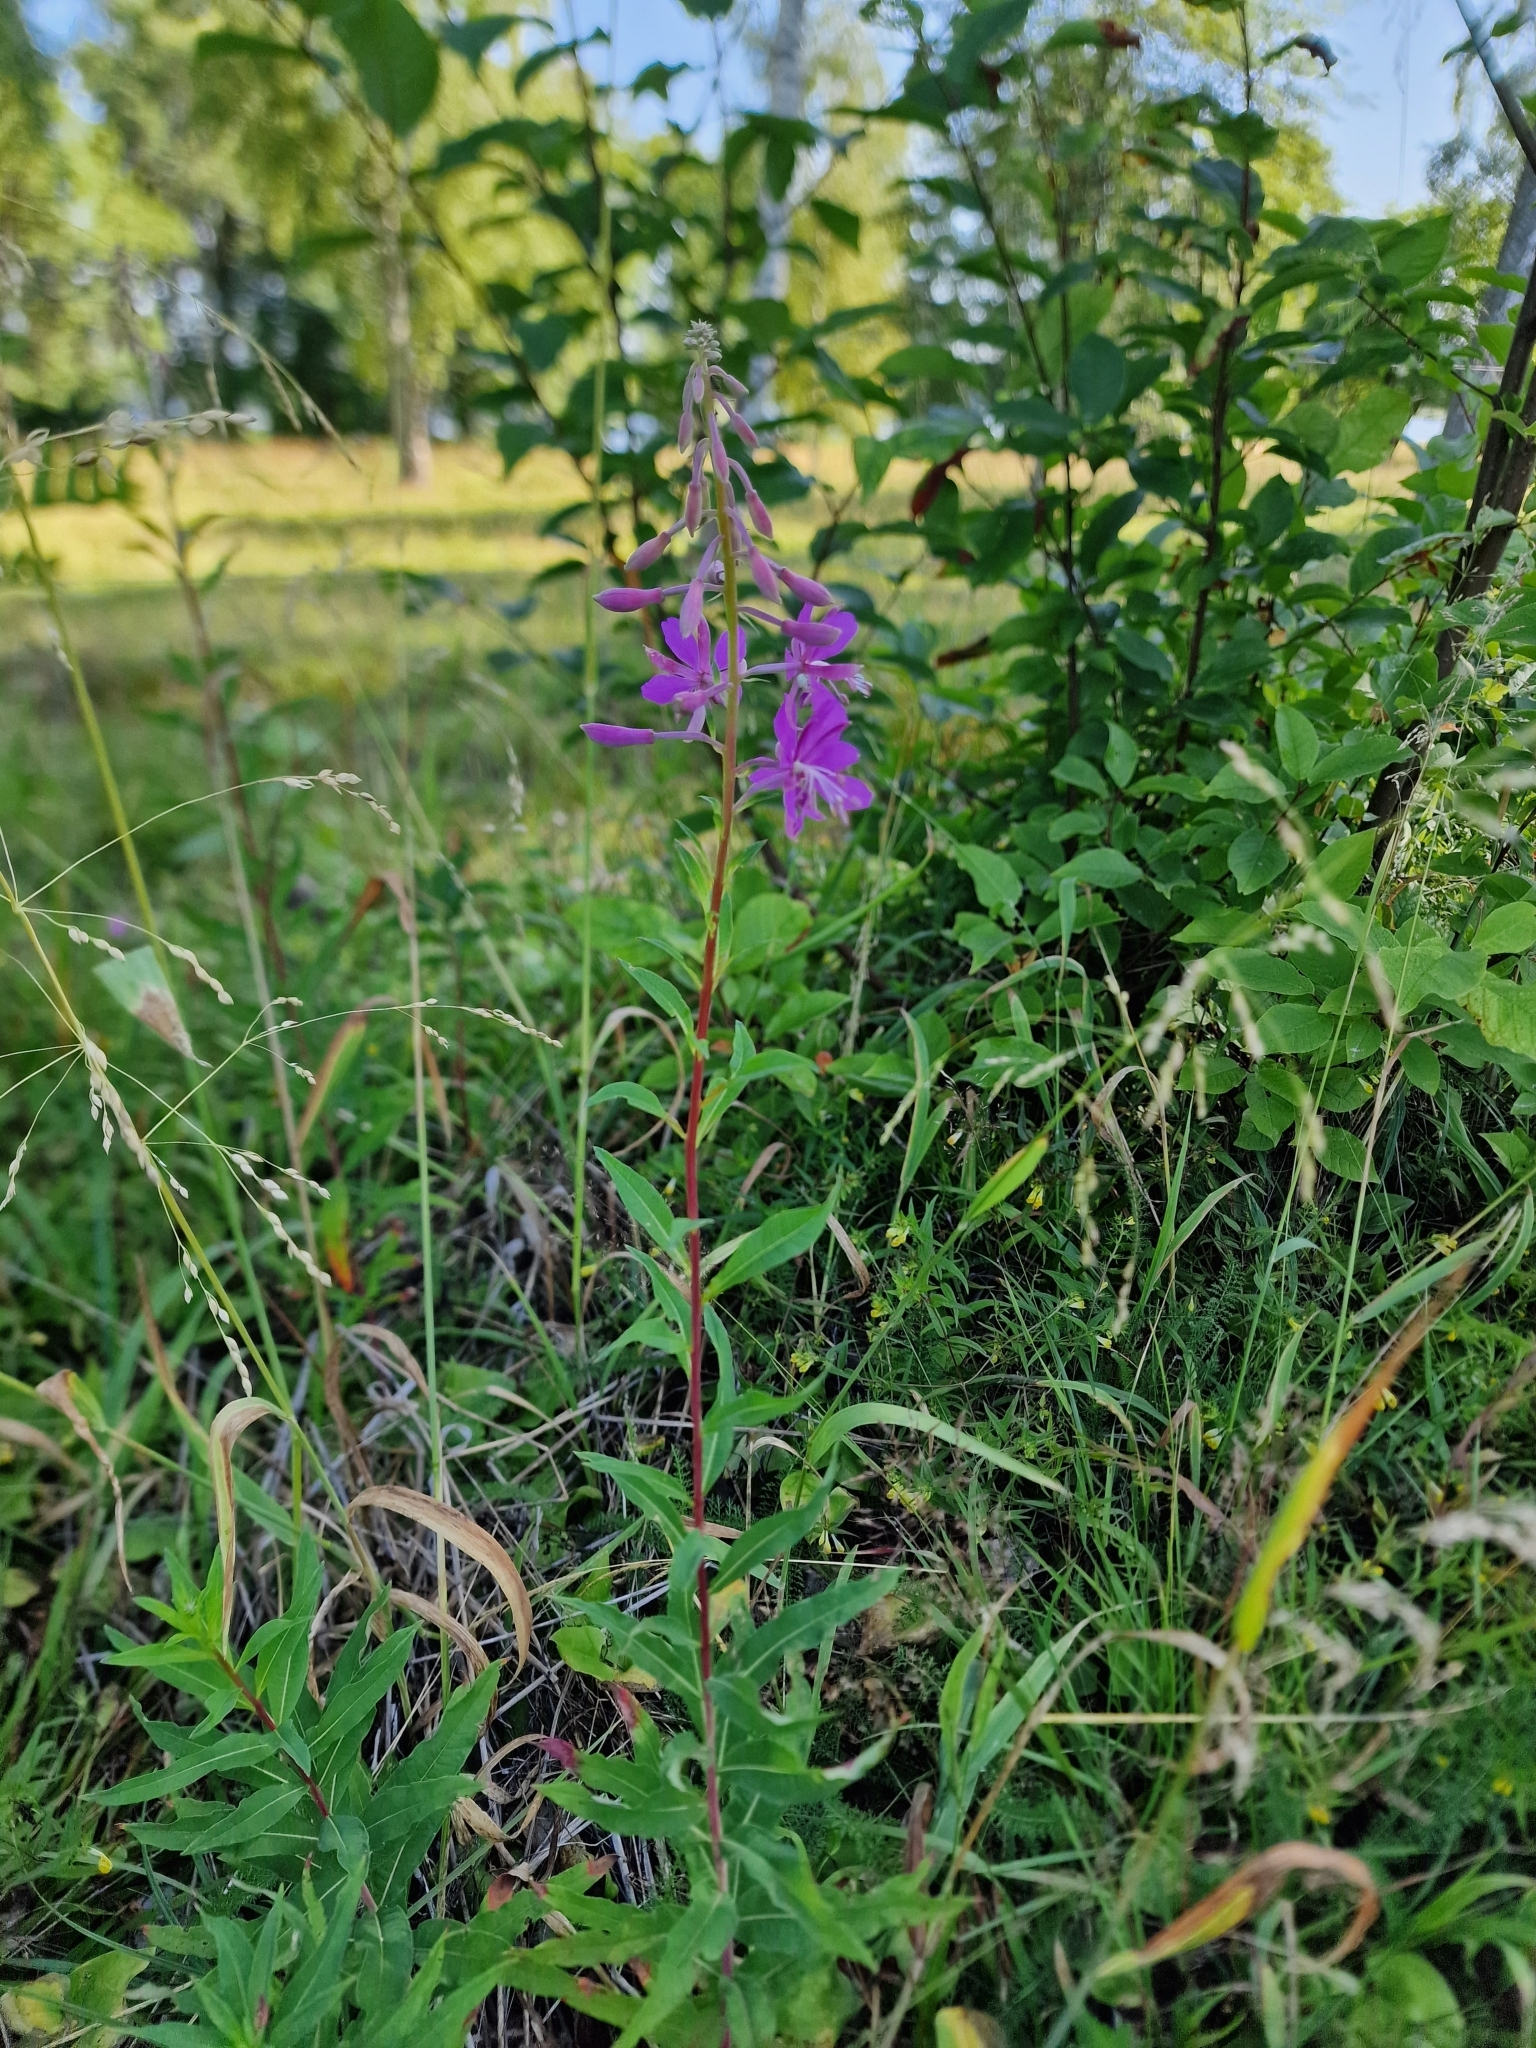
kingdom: Plantae
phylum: Tracheophyta
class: Magnoliopsida
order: Myrtales
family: Onagraceae
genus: Chamaenerion
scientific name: Chamaenerion angustifolium
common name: Fireweed
